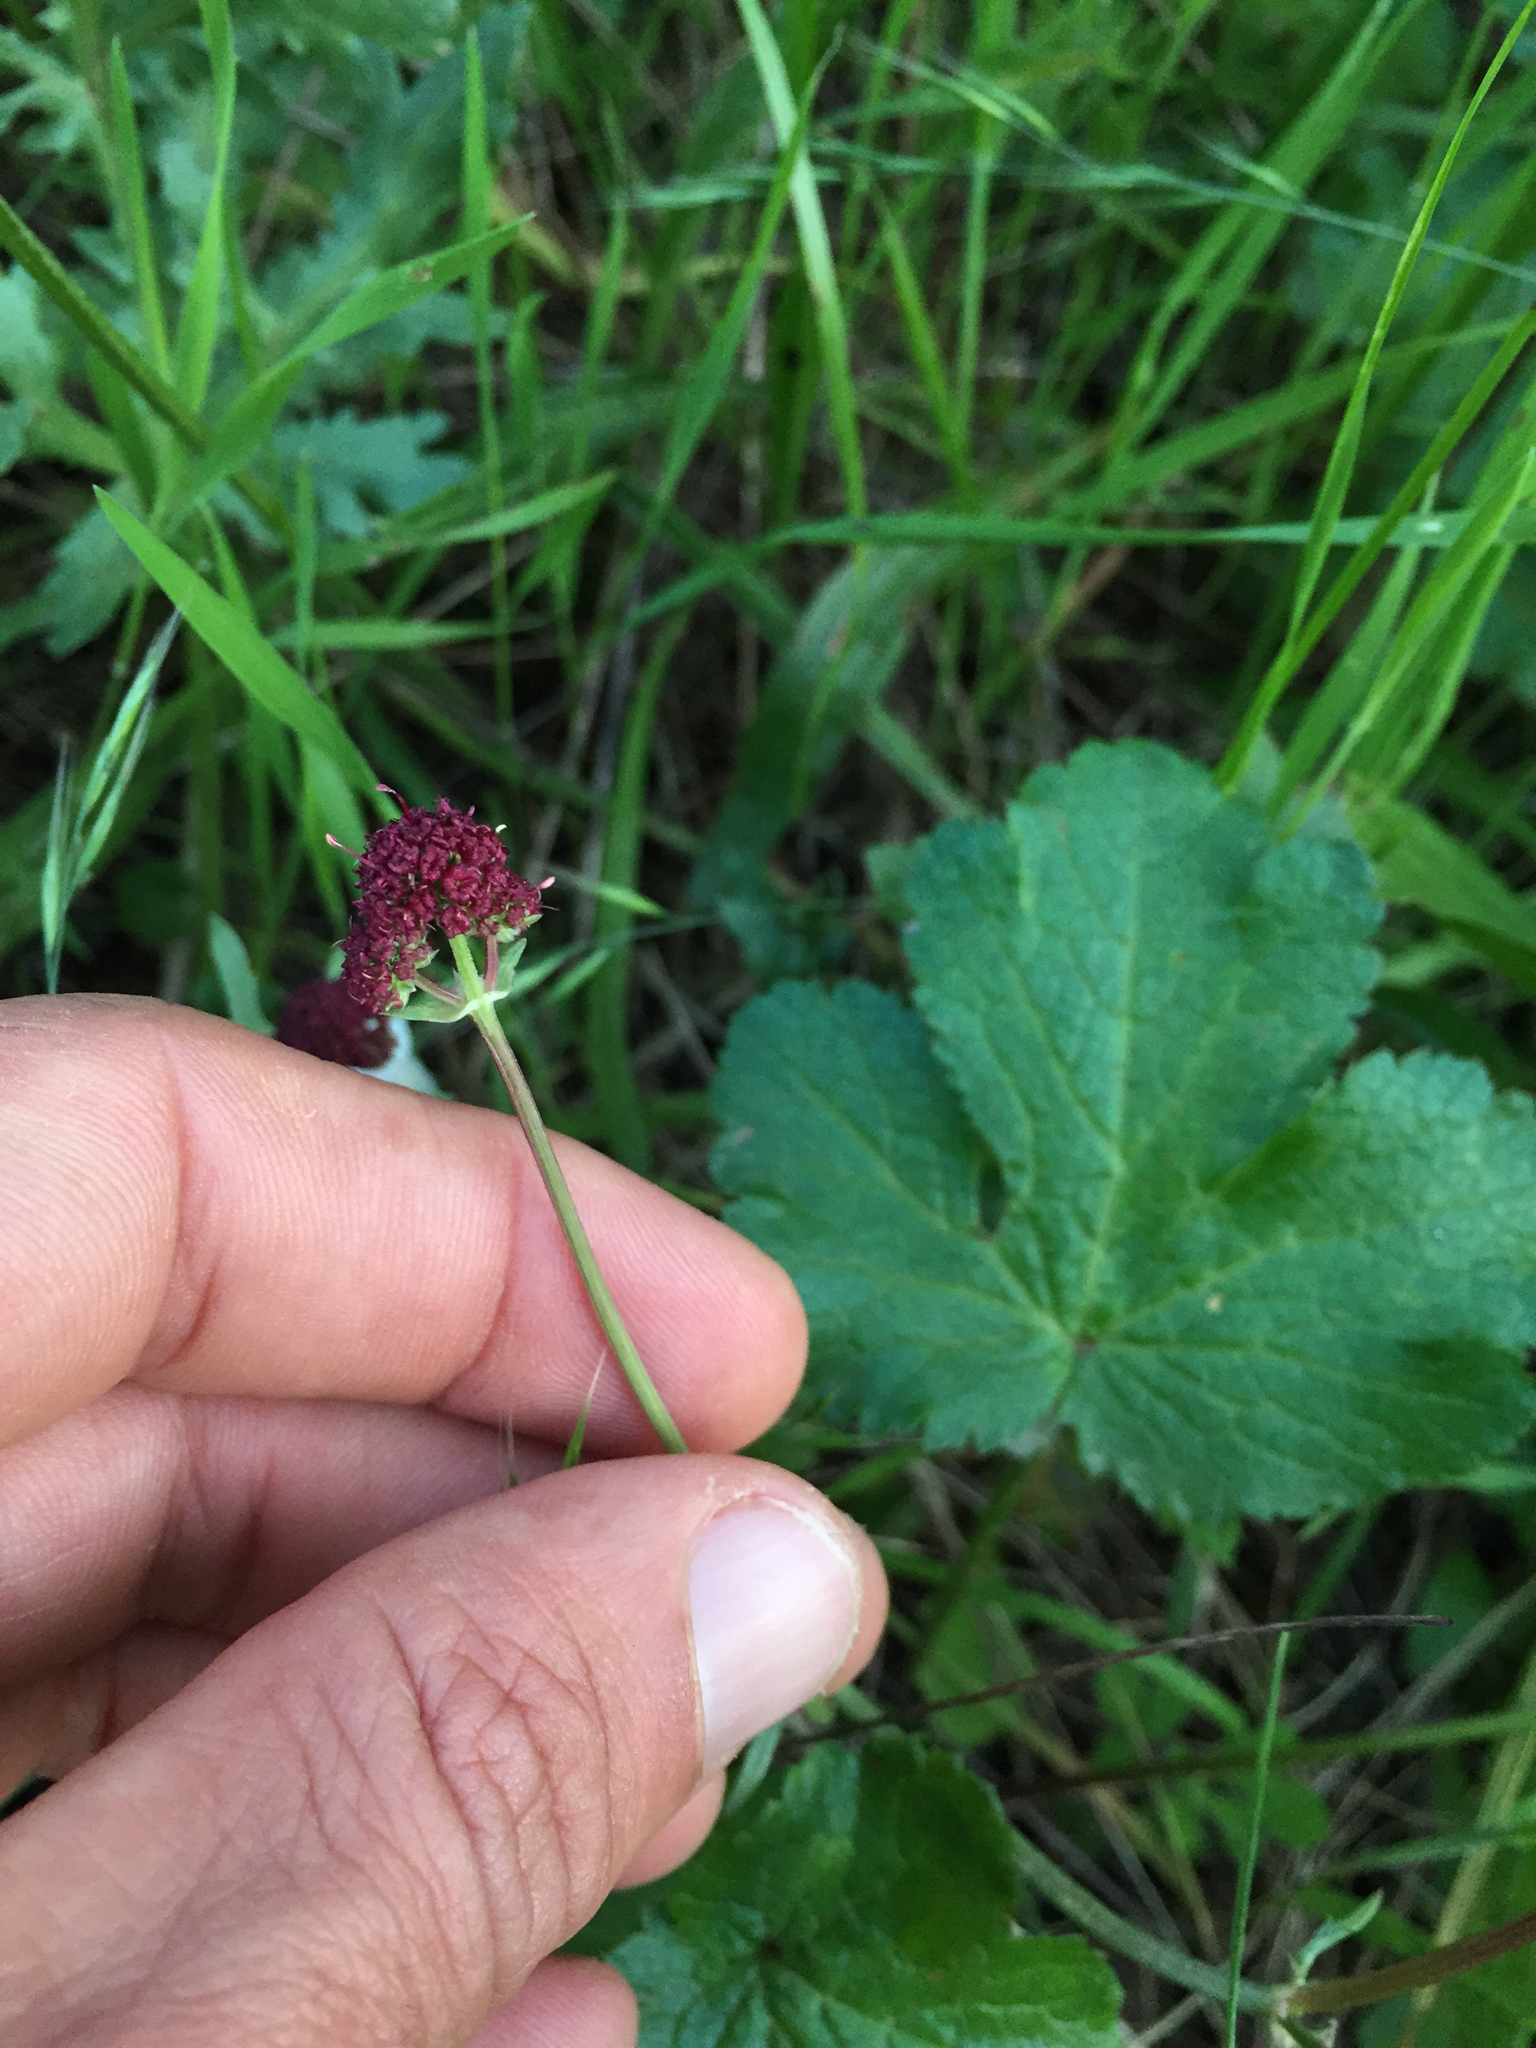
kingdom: Plantae
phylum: Tracheophyta
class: Magnoliopsida
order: Apiales
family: Apiaceae
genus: Sanicula
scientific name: Sanicula bipinnatifida
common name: Shoe-buttons
